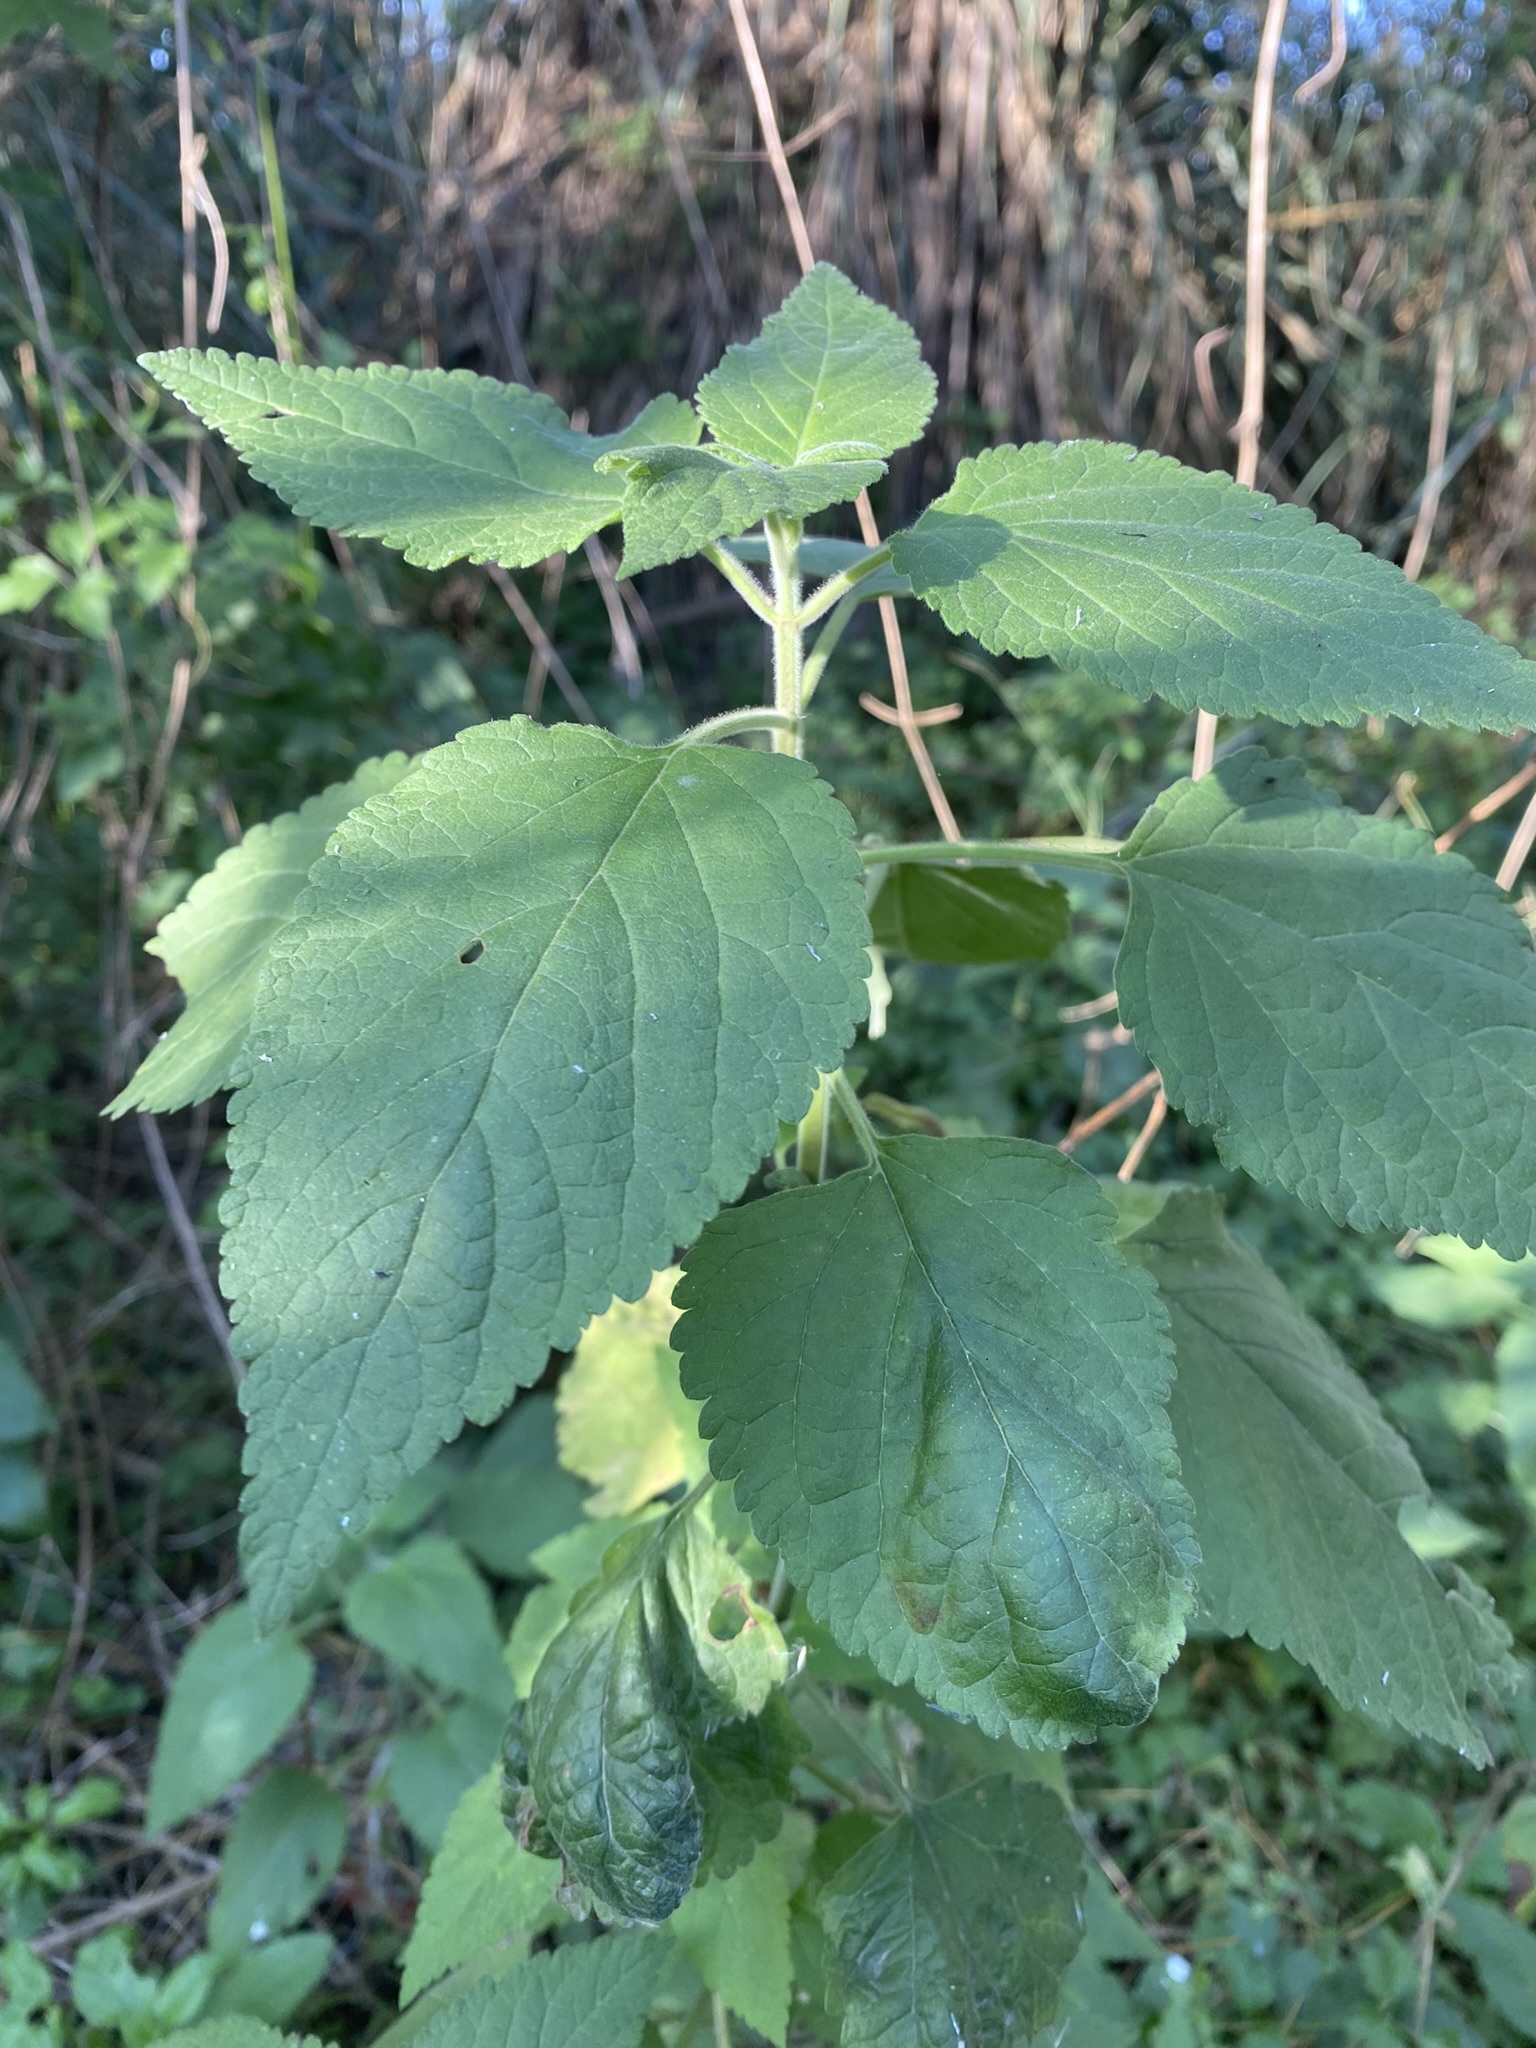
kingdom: Plantae
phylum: Tracheophyta
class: Magnoliopsida
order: Lamiales
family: Lamiaceae
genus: Teucrium
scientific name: Teucrium vesicarium
